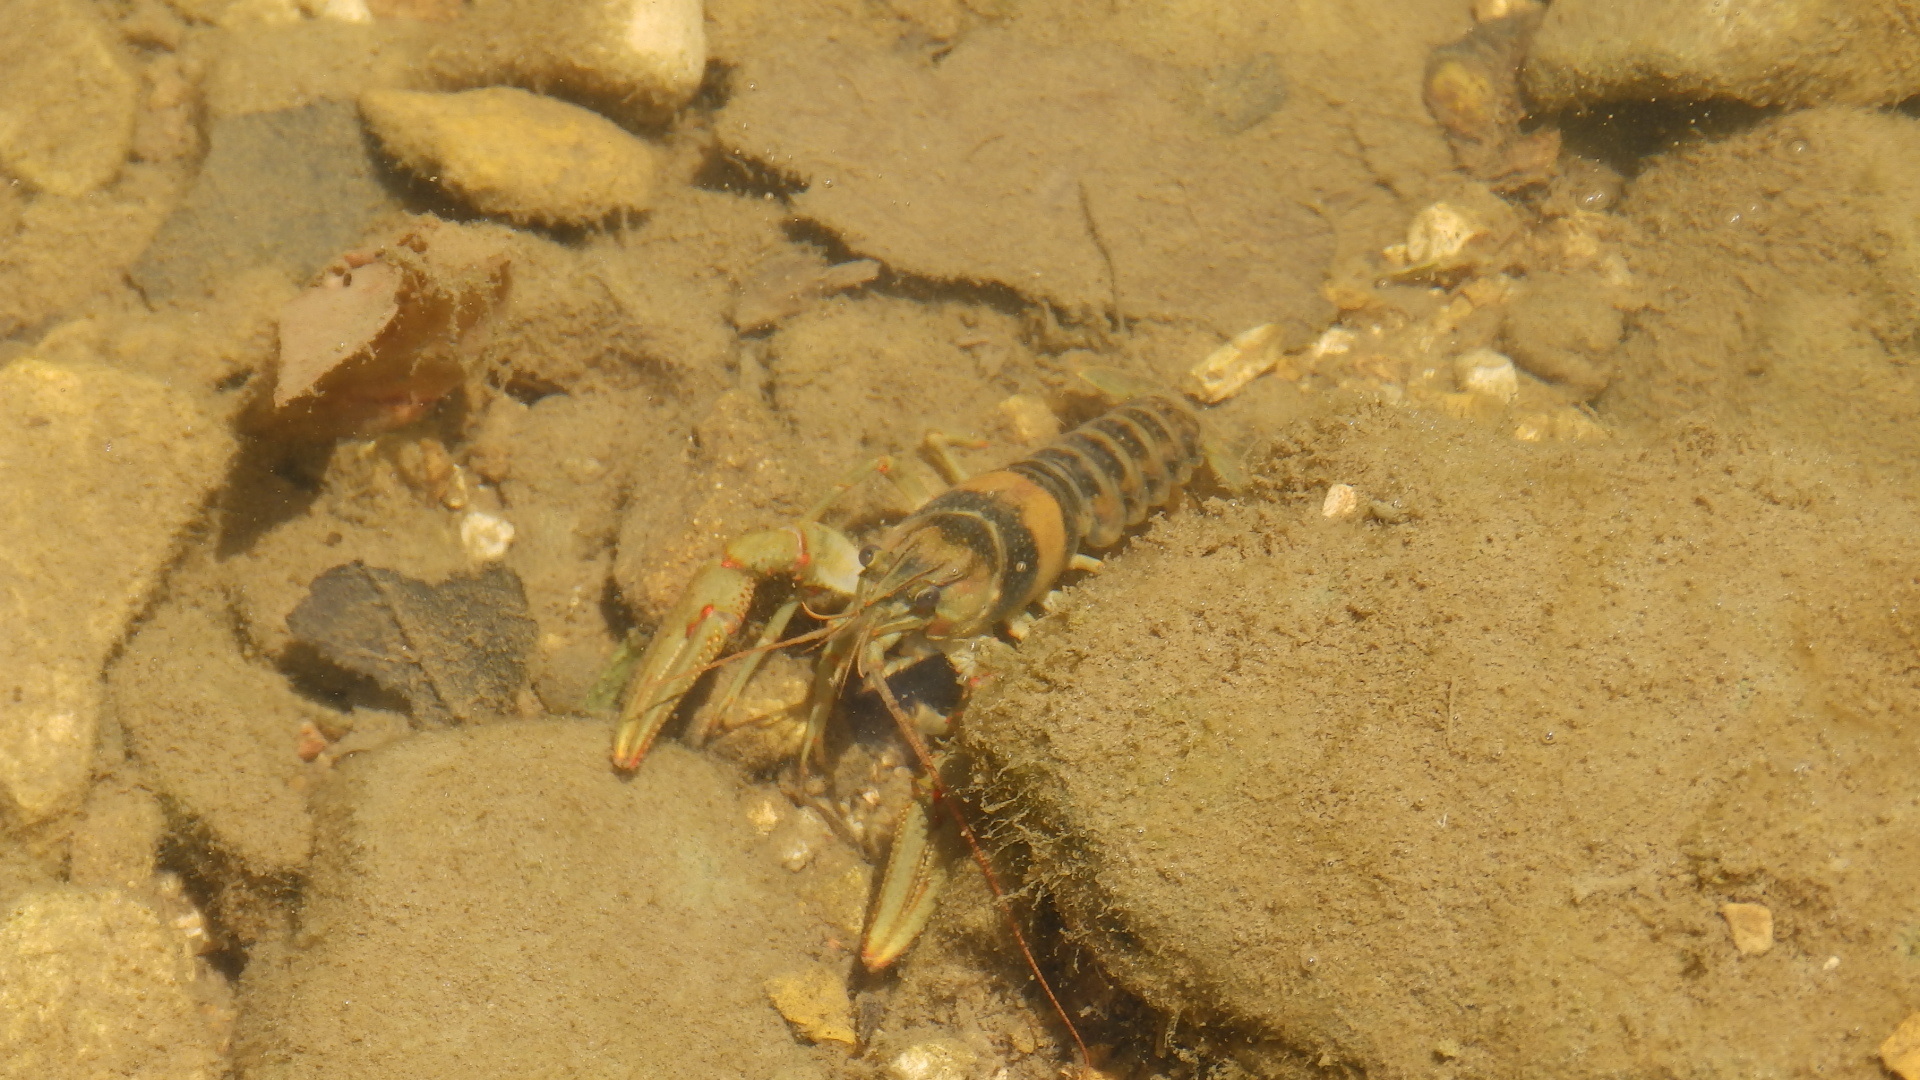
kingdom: Animalia
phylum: Arthropoda
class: Malacostraca
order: Decapoda
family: Cambaridae
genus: Faxonius
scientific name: Faxonius harrisonii
